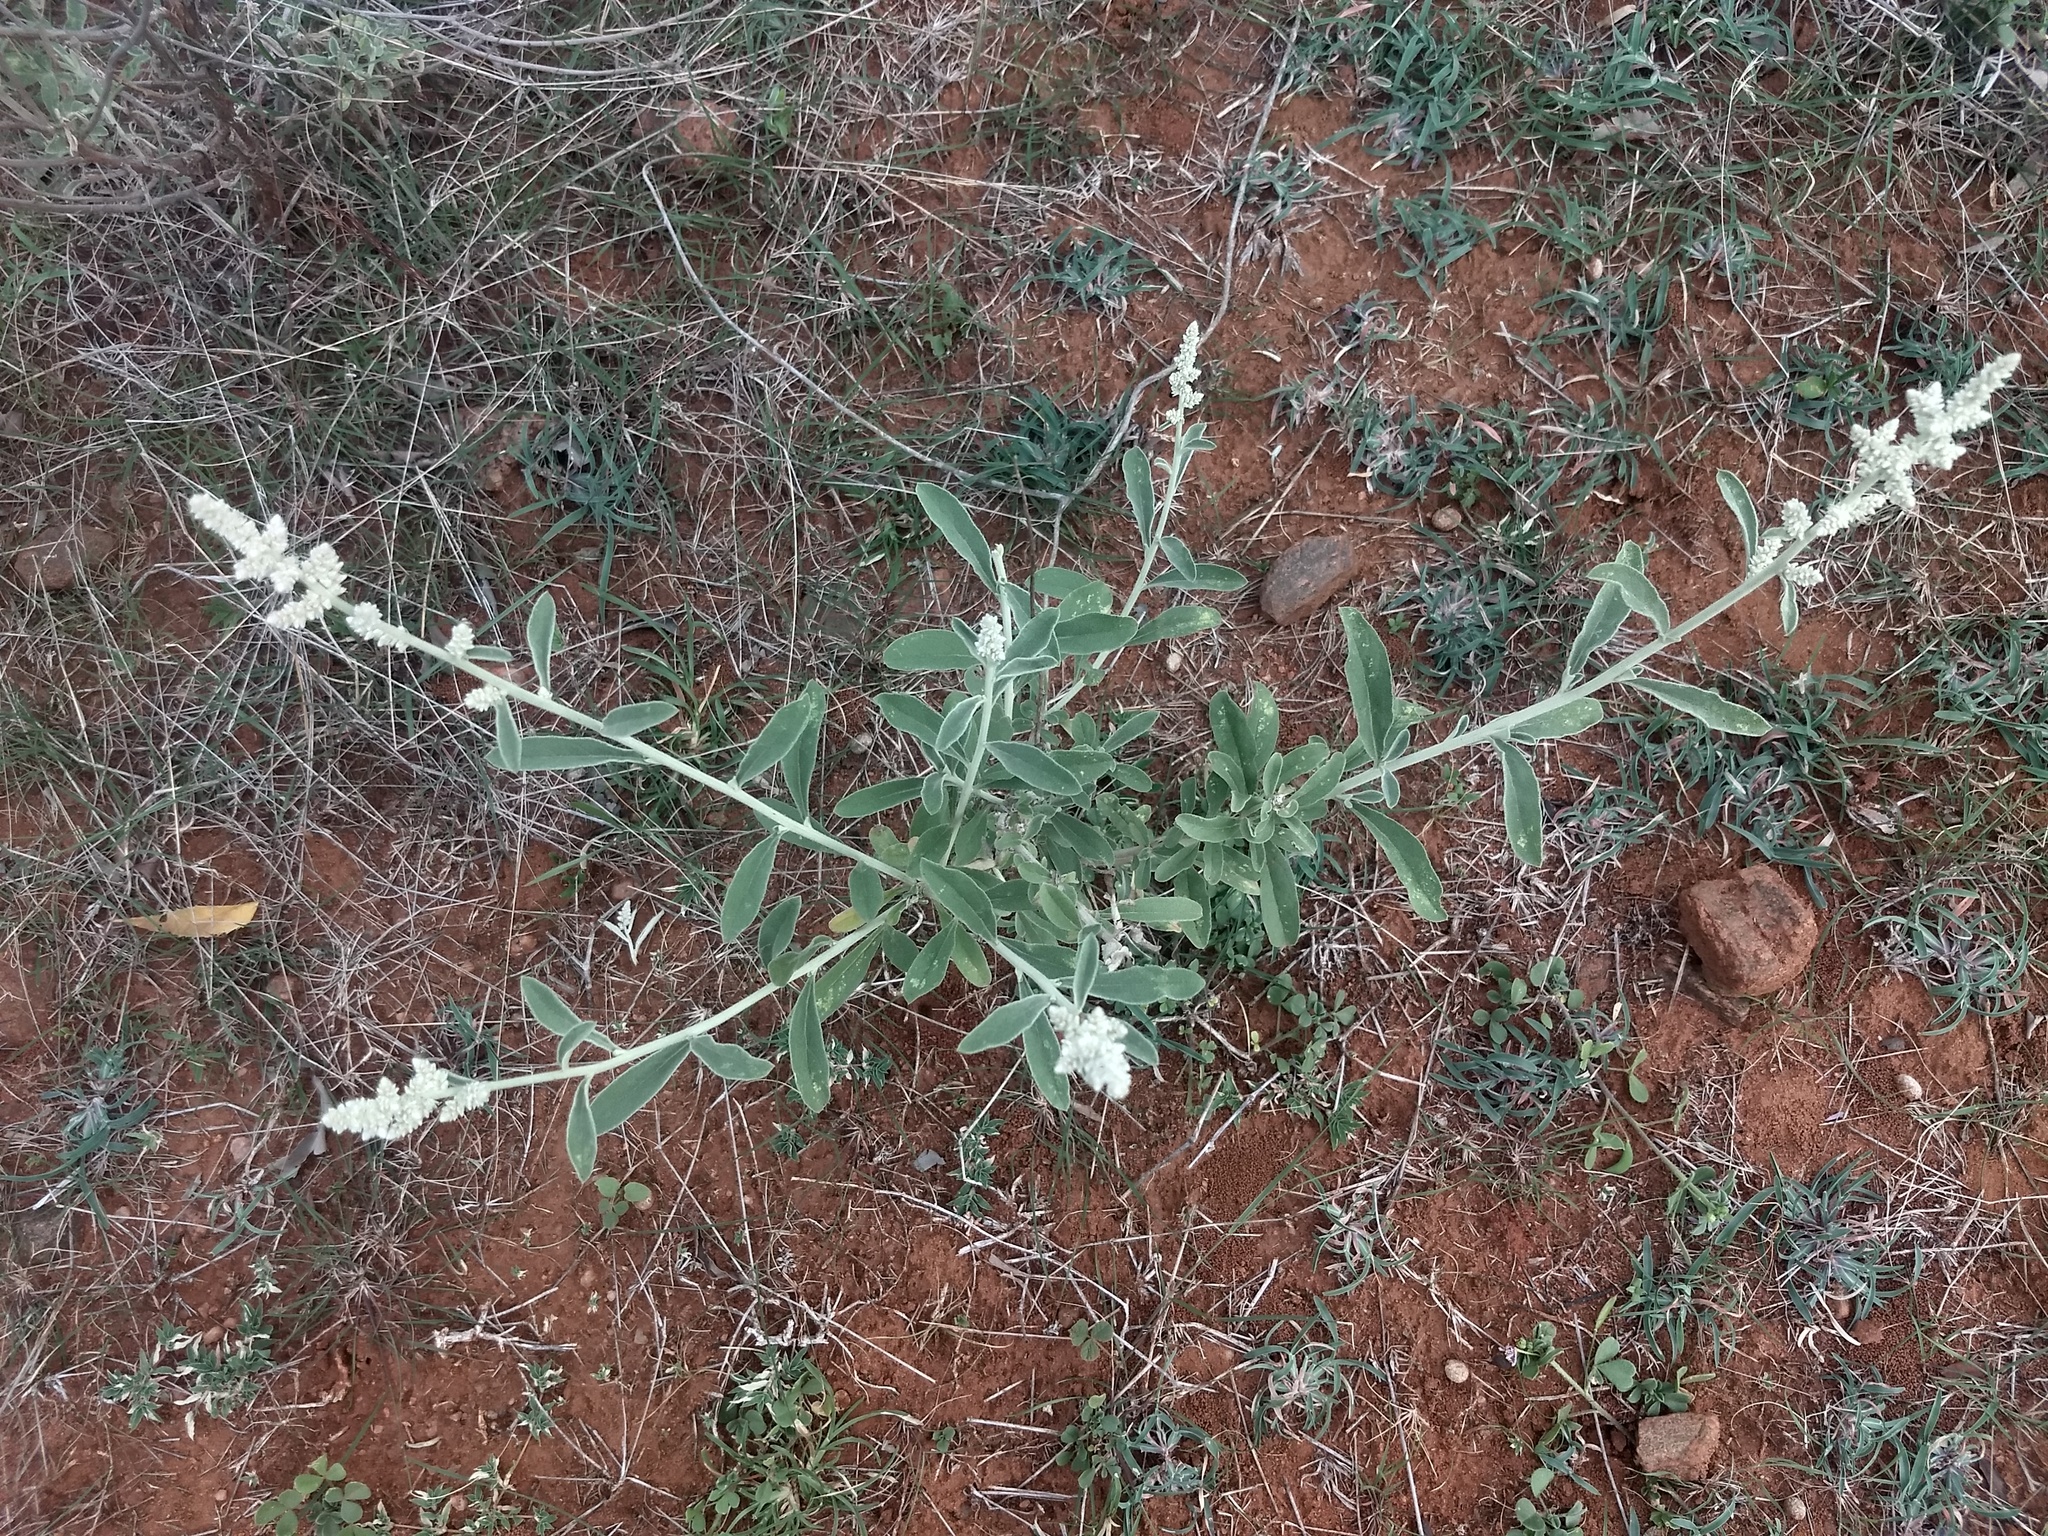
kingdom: Plantae
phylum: Tracheophyta
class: Magnoliopsida
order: Caryophyllales
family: Amaranthaceae
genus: Aerva
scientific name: Aerva javanica
